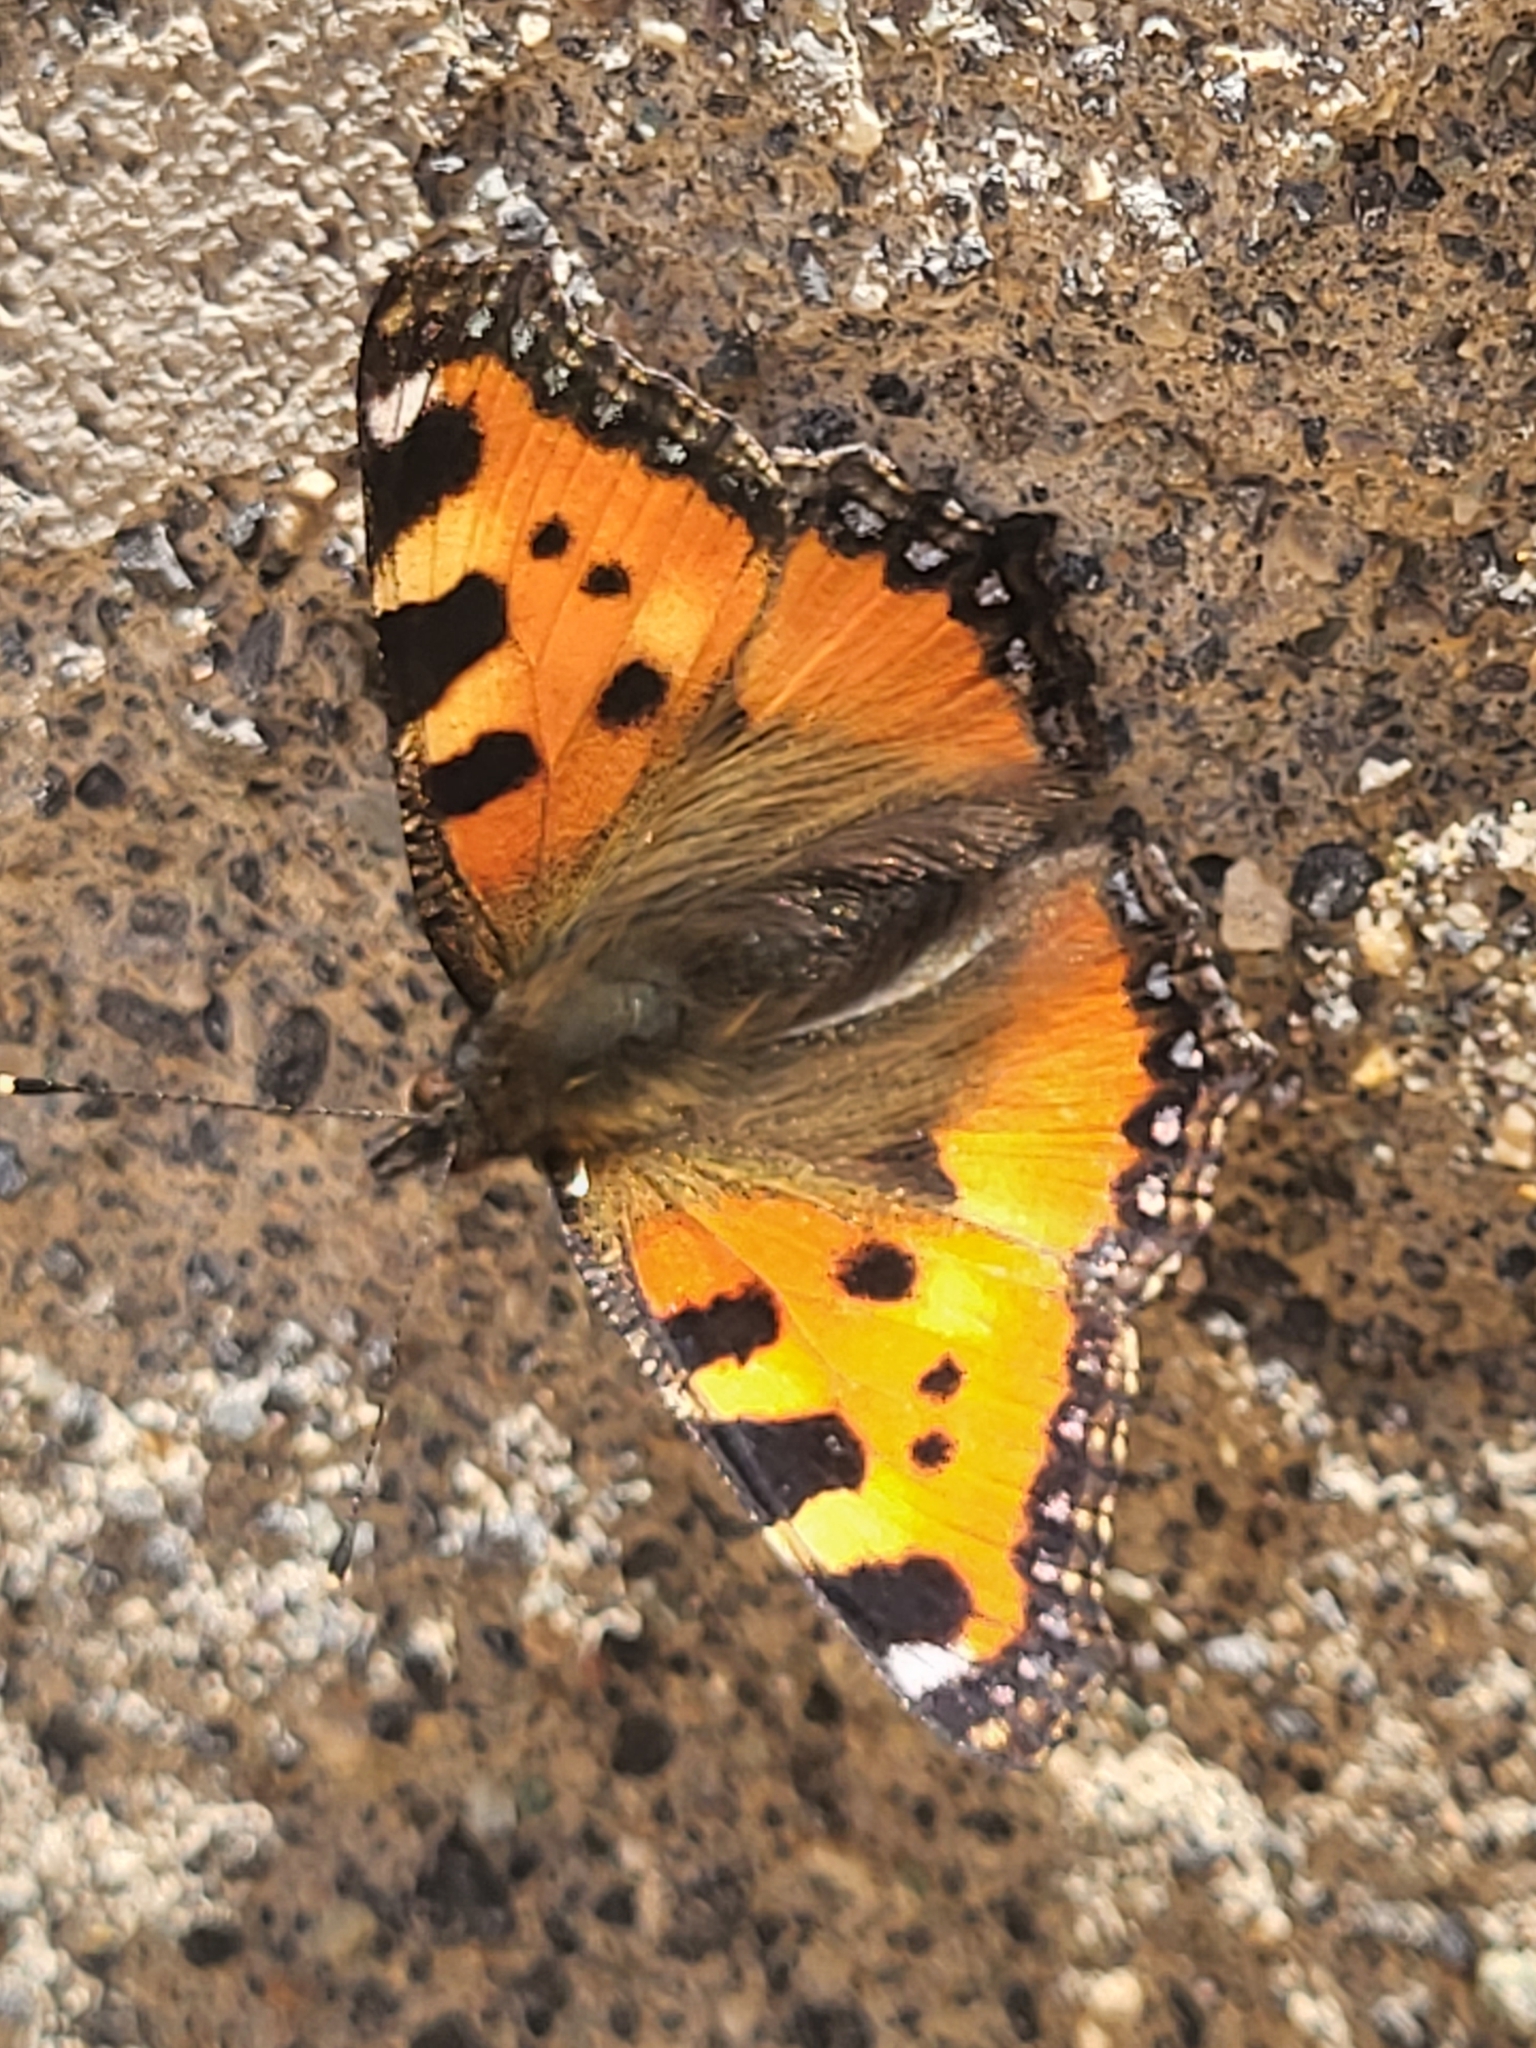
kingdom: Animalia
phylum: Arthropoda
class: Insecta
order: Lepidoptera
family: Nymphalidae
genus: Aglais
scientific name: Aglais urticae
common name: Small tortoiseshell
